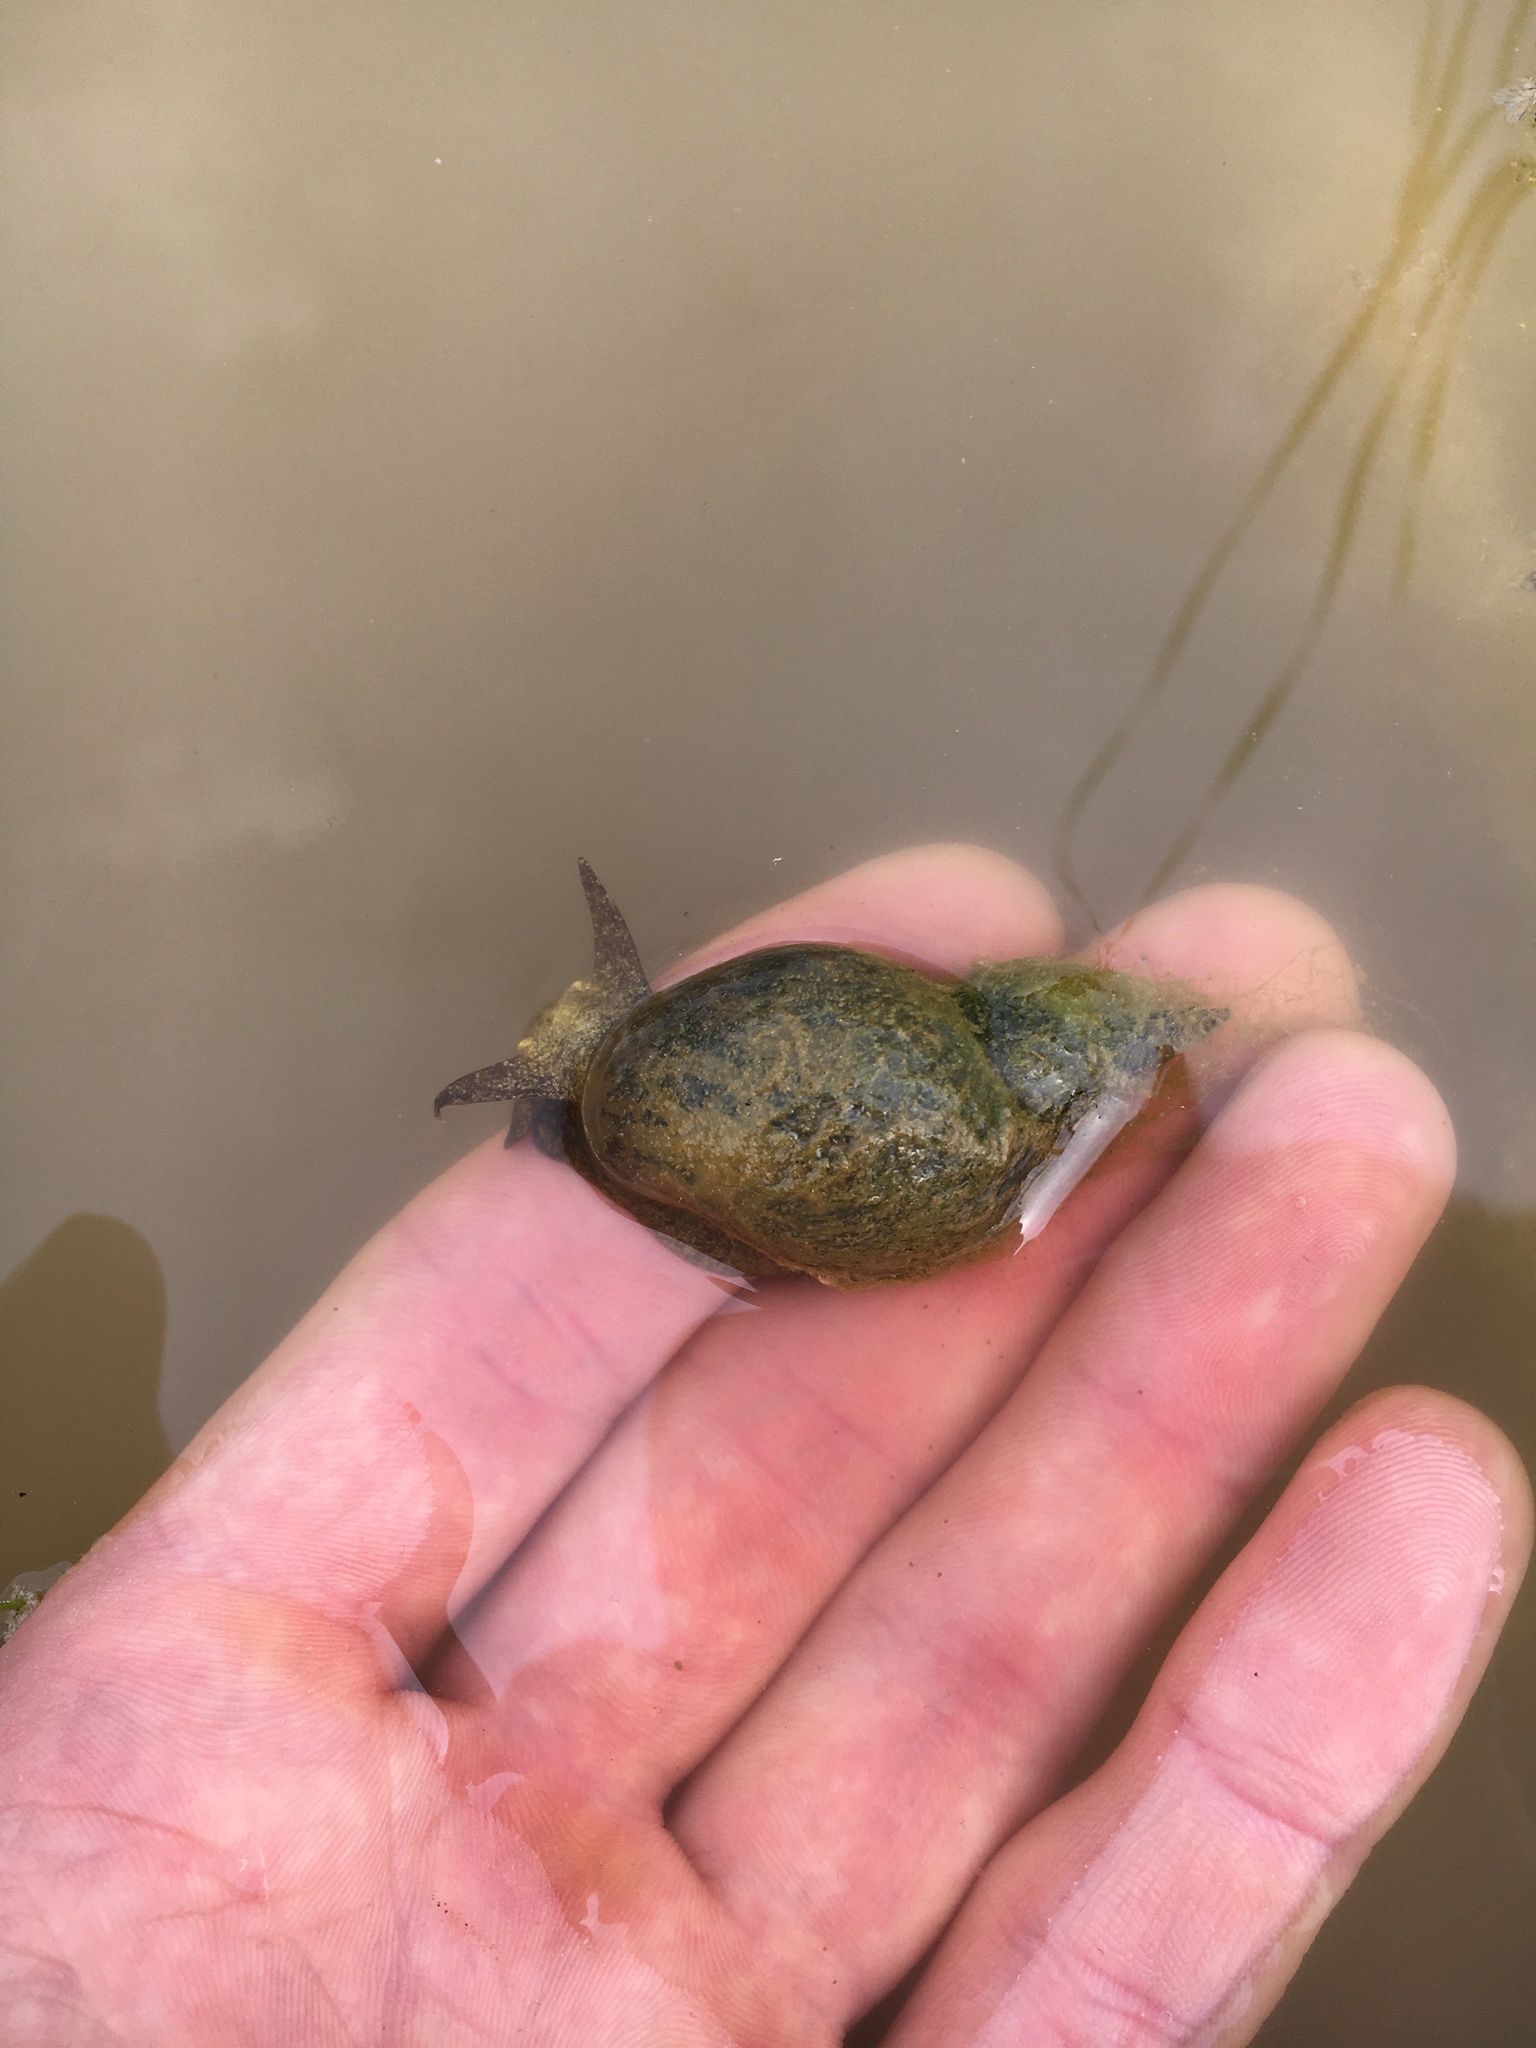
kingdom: Animalia
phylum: Mollusca
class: Gastropoda
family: Lymnaeidae
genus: Lymnaea
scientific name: Lymnaea stagnalis
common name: Great pond snail
